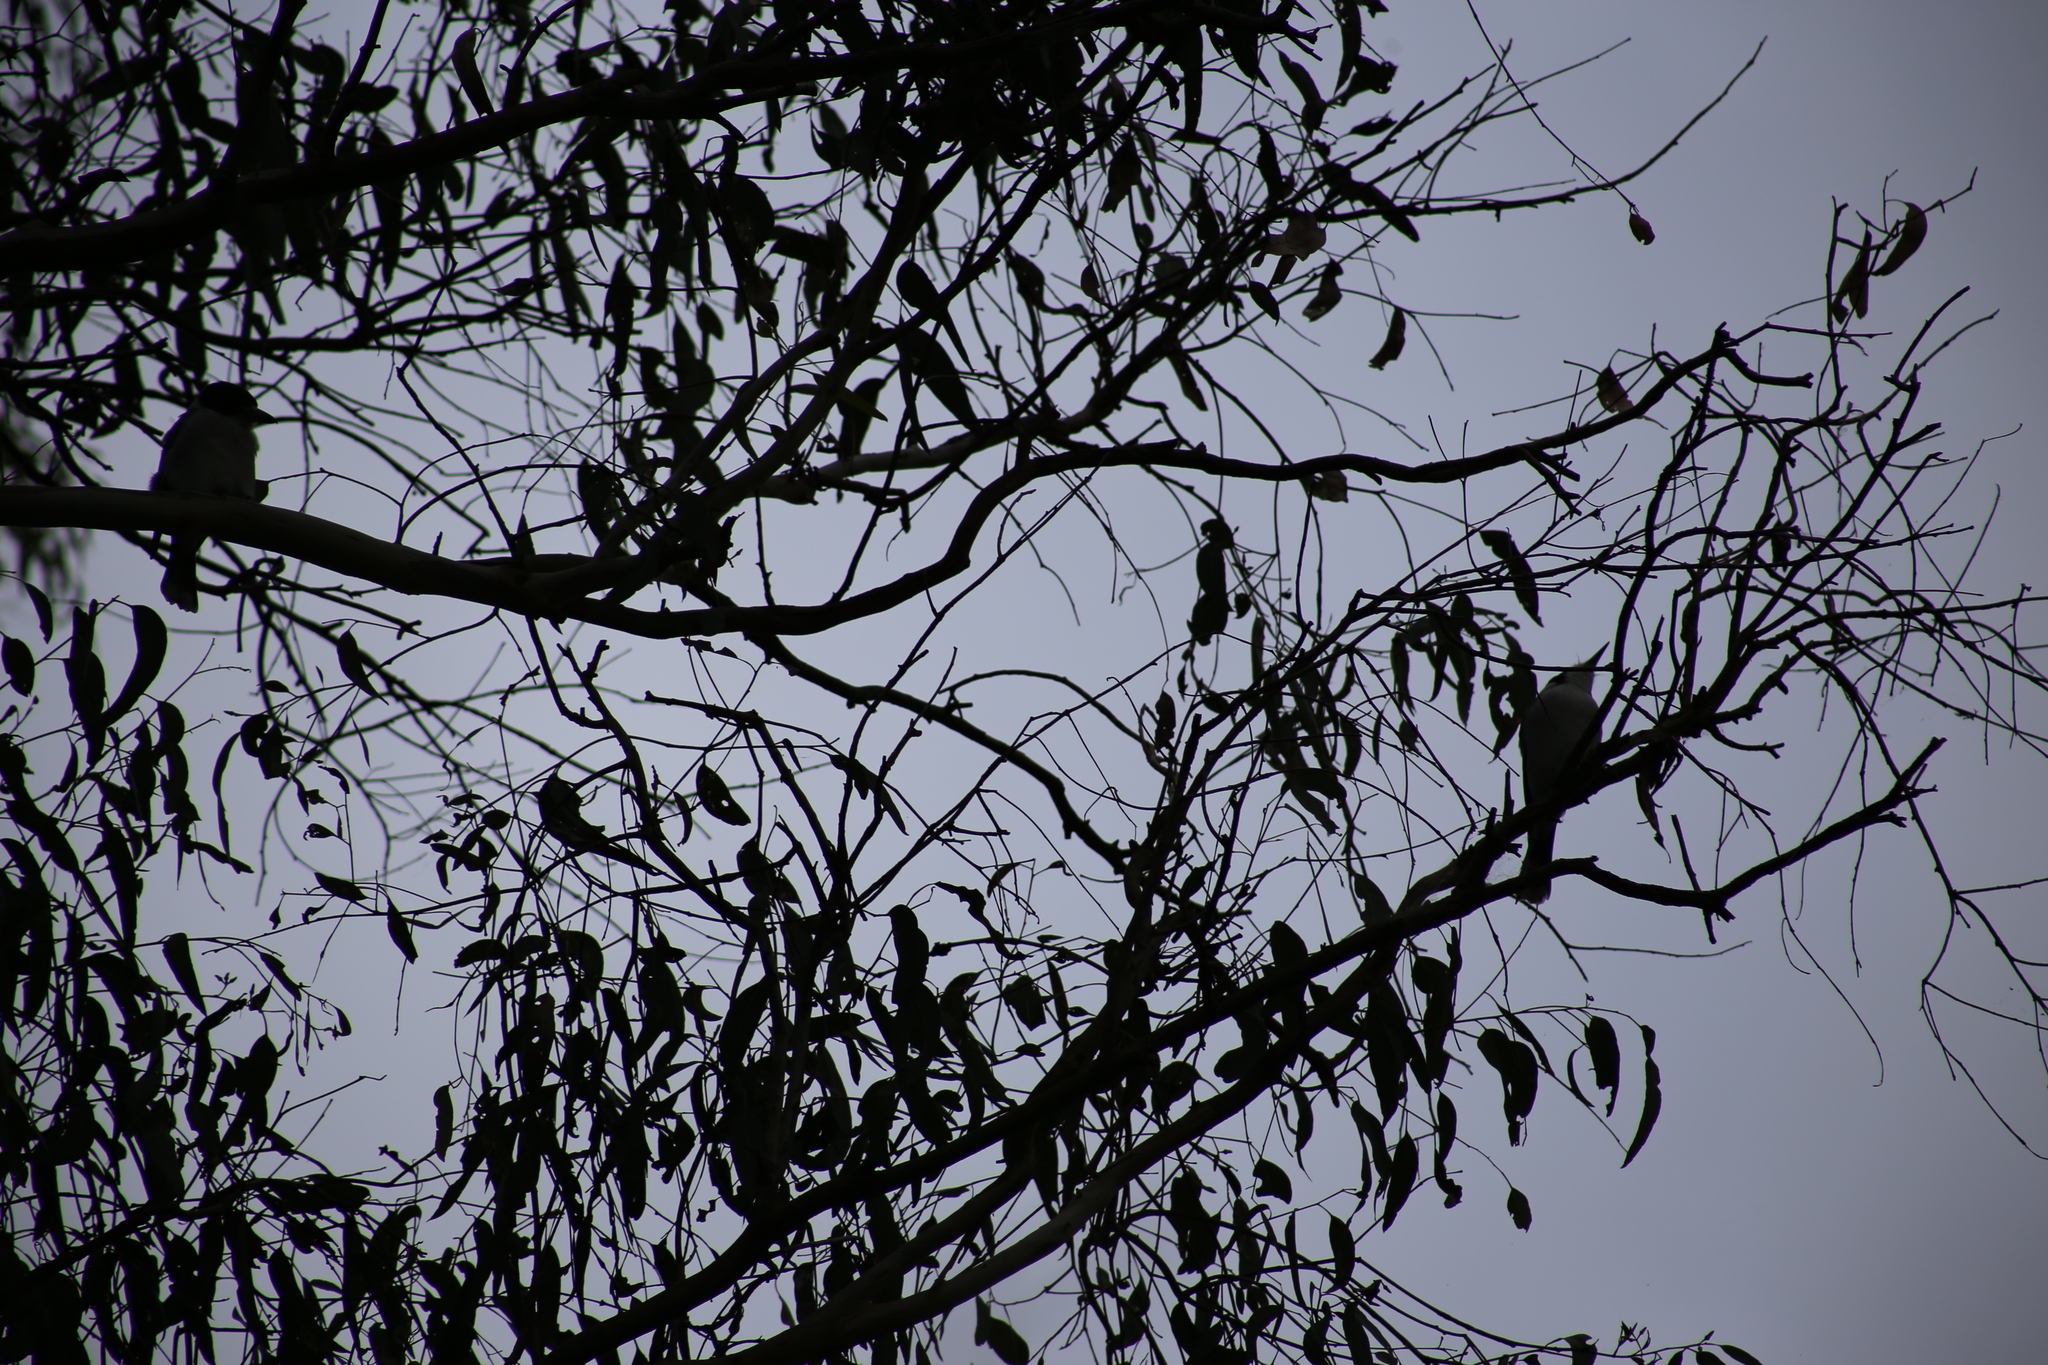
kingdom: Animalia
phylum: Chordata
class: Aves
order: Passeriformes
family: Cracticidae
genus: Cracticus
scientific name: Cracticus torquatus
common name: Grey butcherbird
